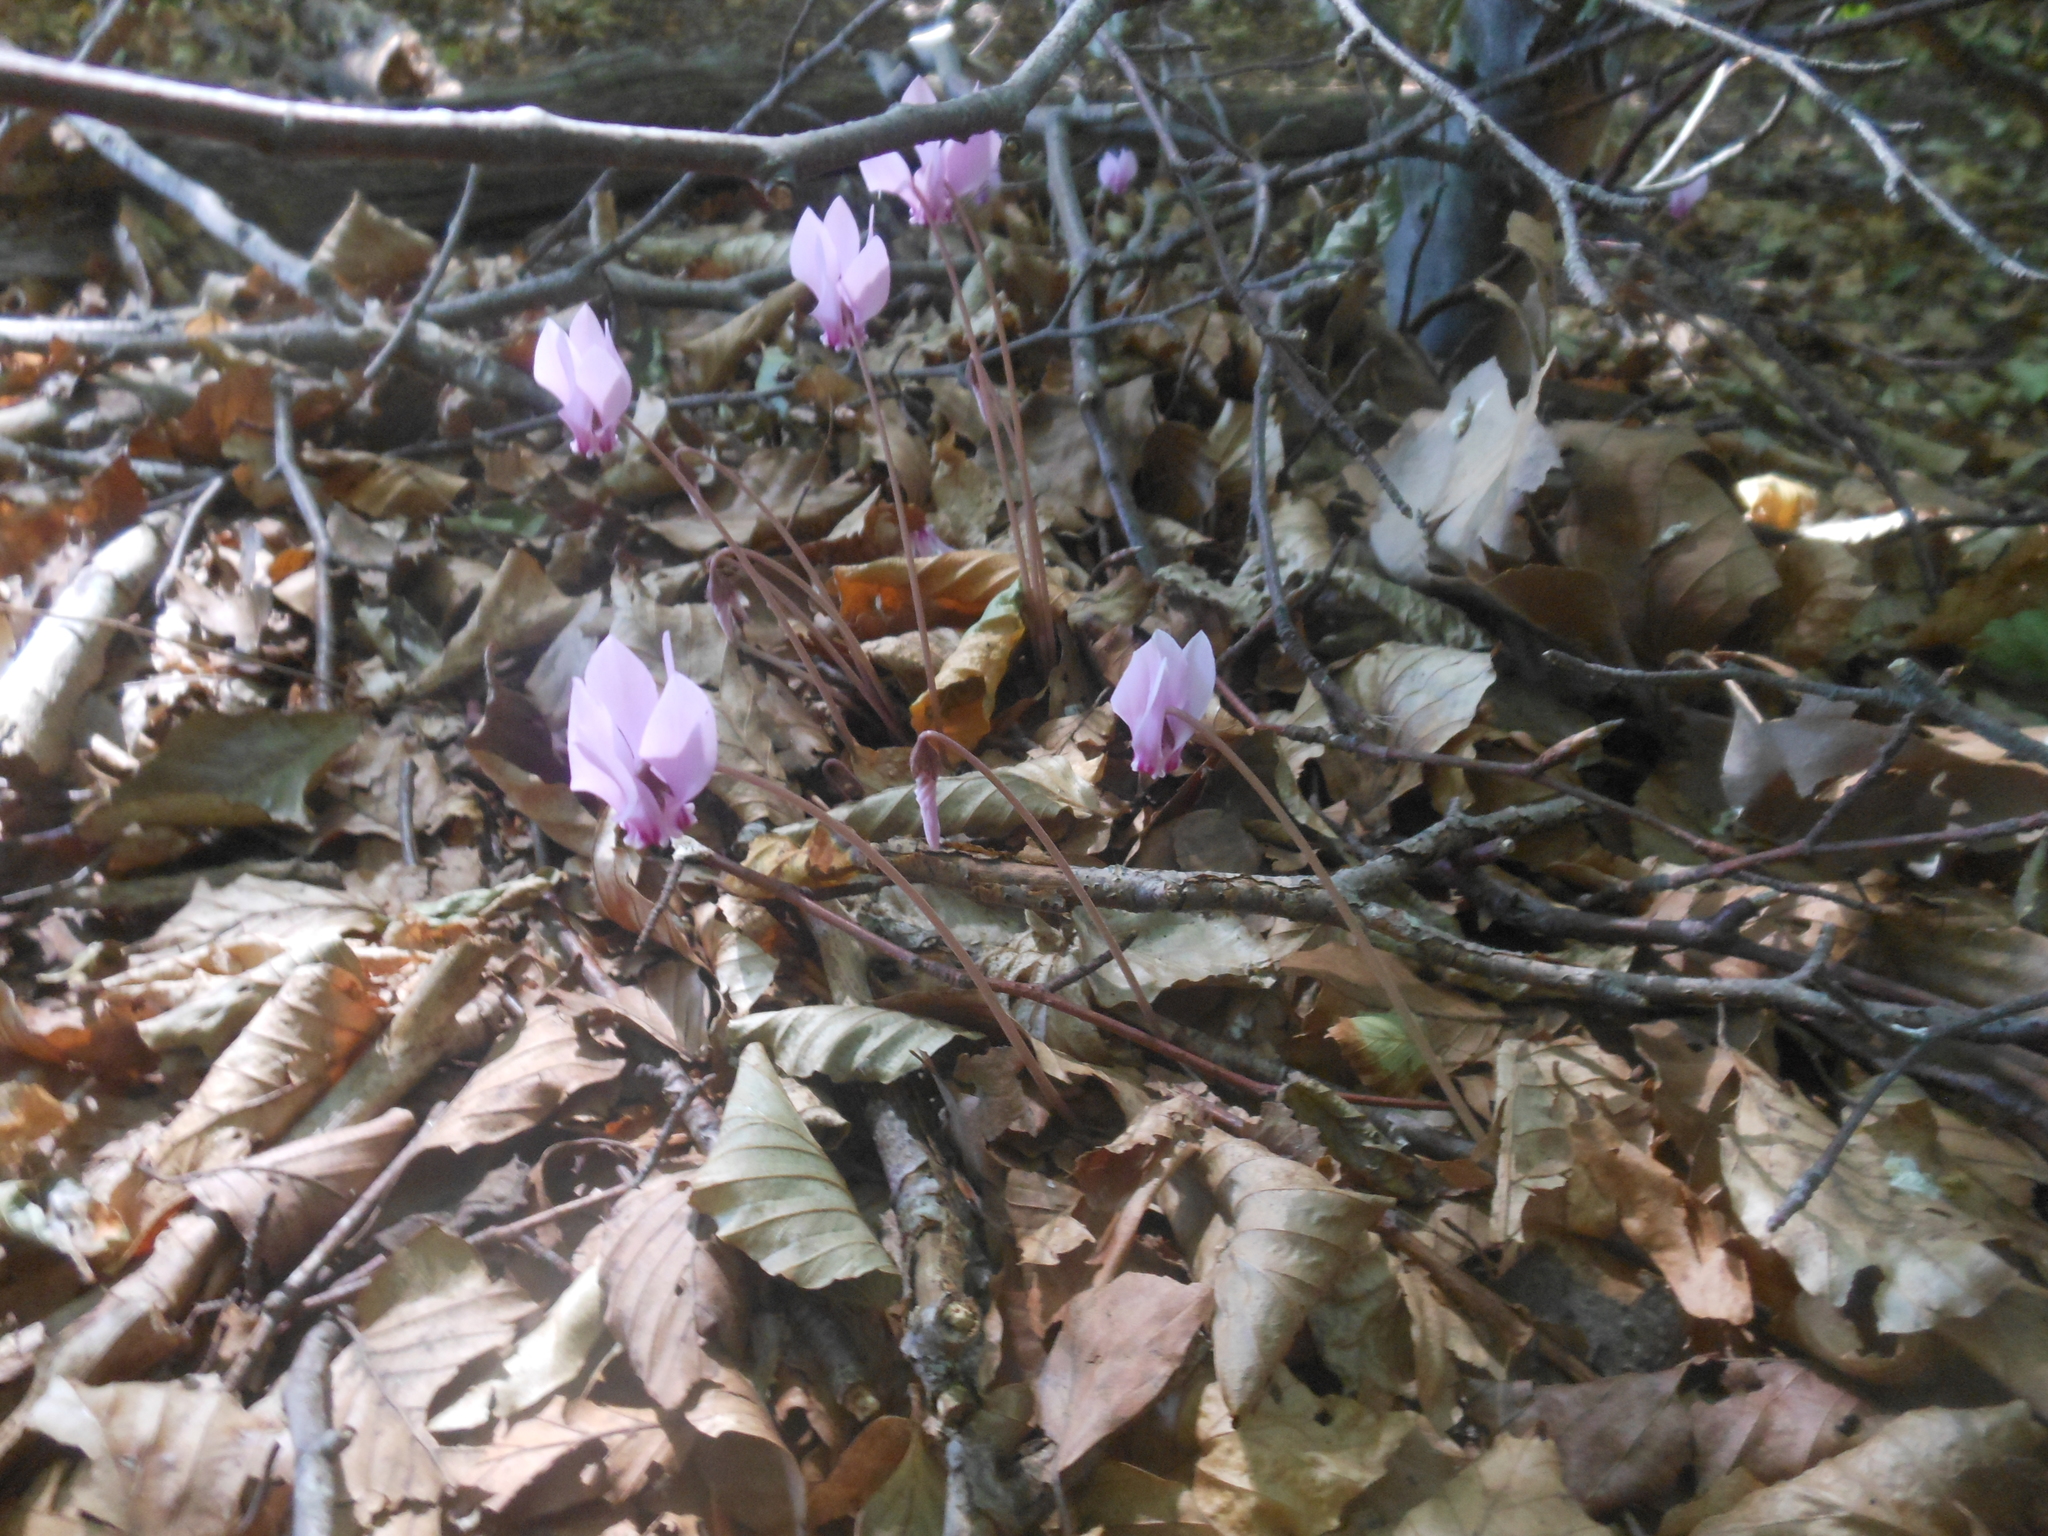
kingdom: Plantae
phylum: Tracheophyta
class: Magnoliopsida
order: Ericales
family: Primulaceae
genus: Cyclamen
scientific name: Cyclamen hederifolium
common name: Sowbread
